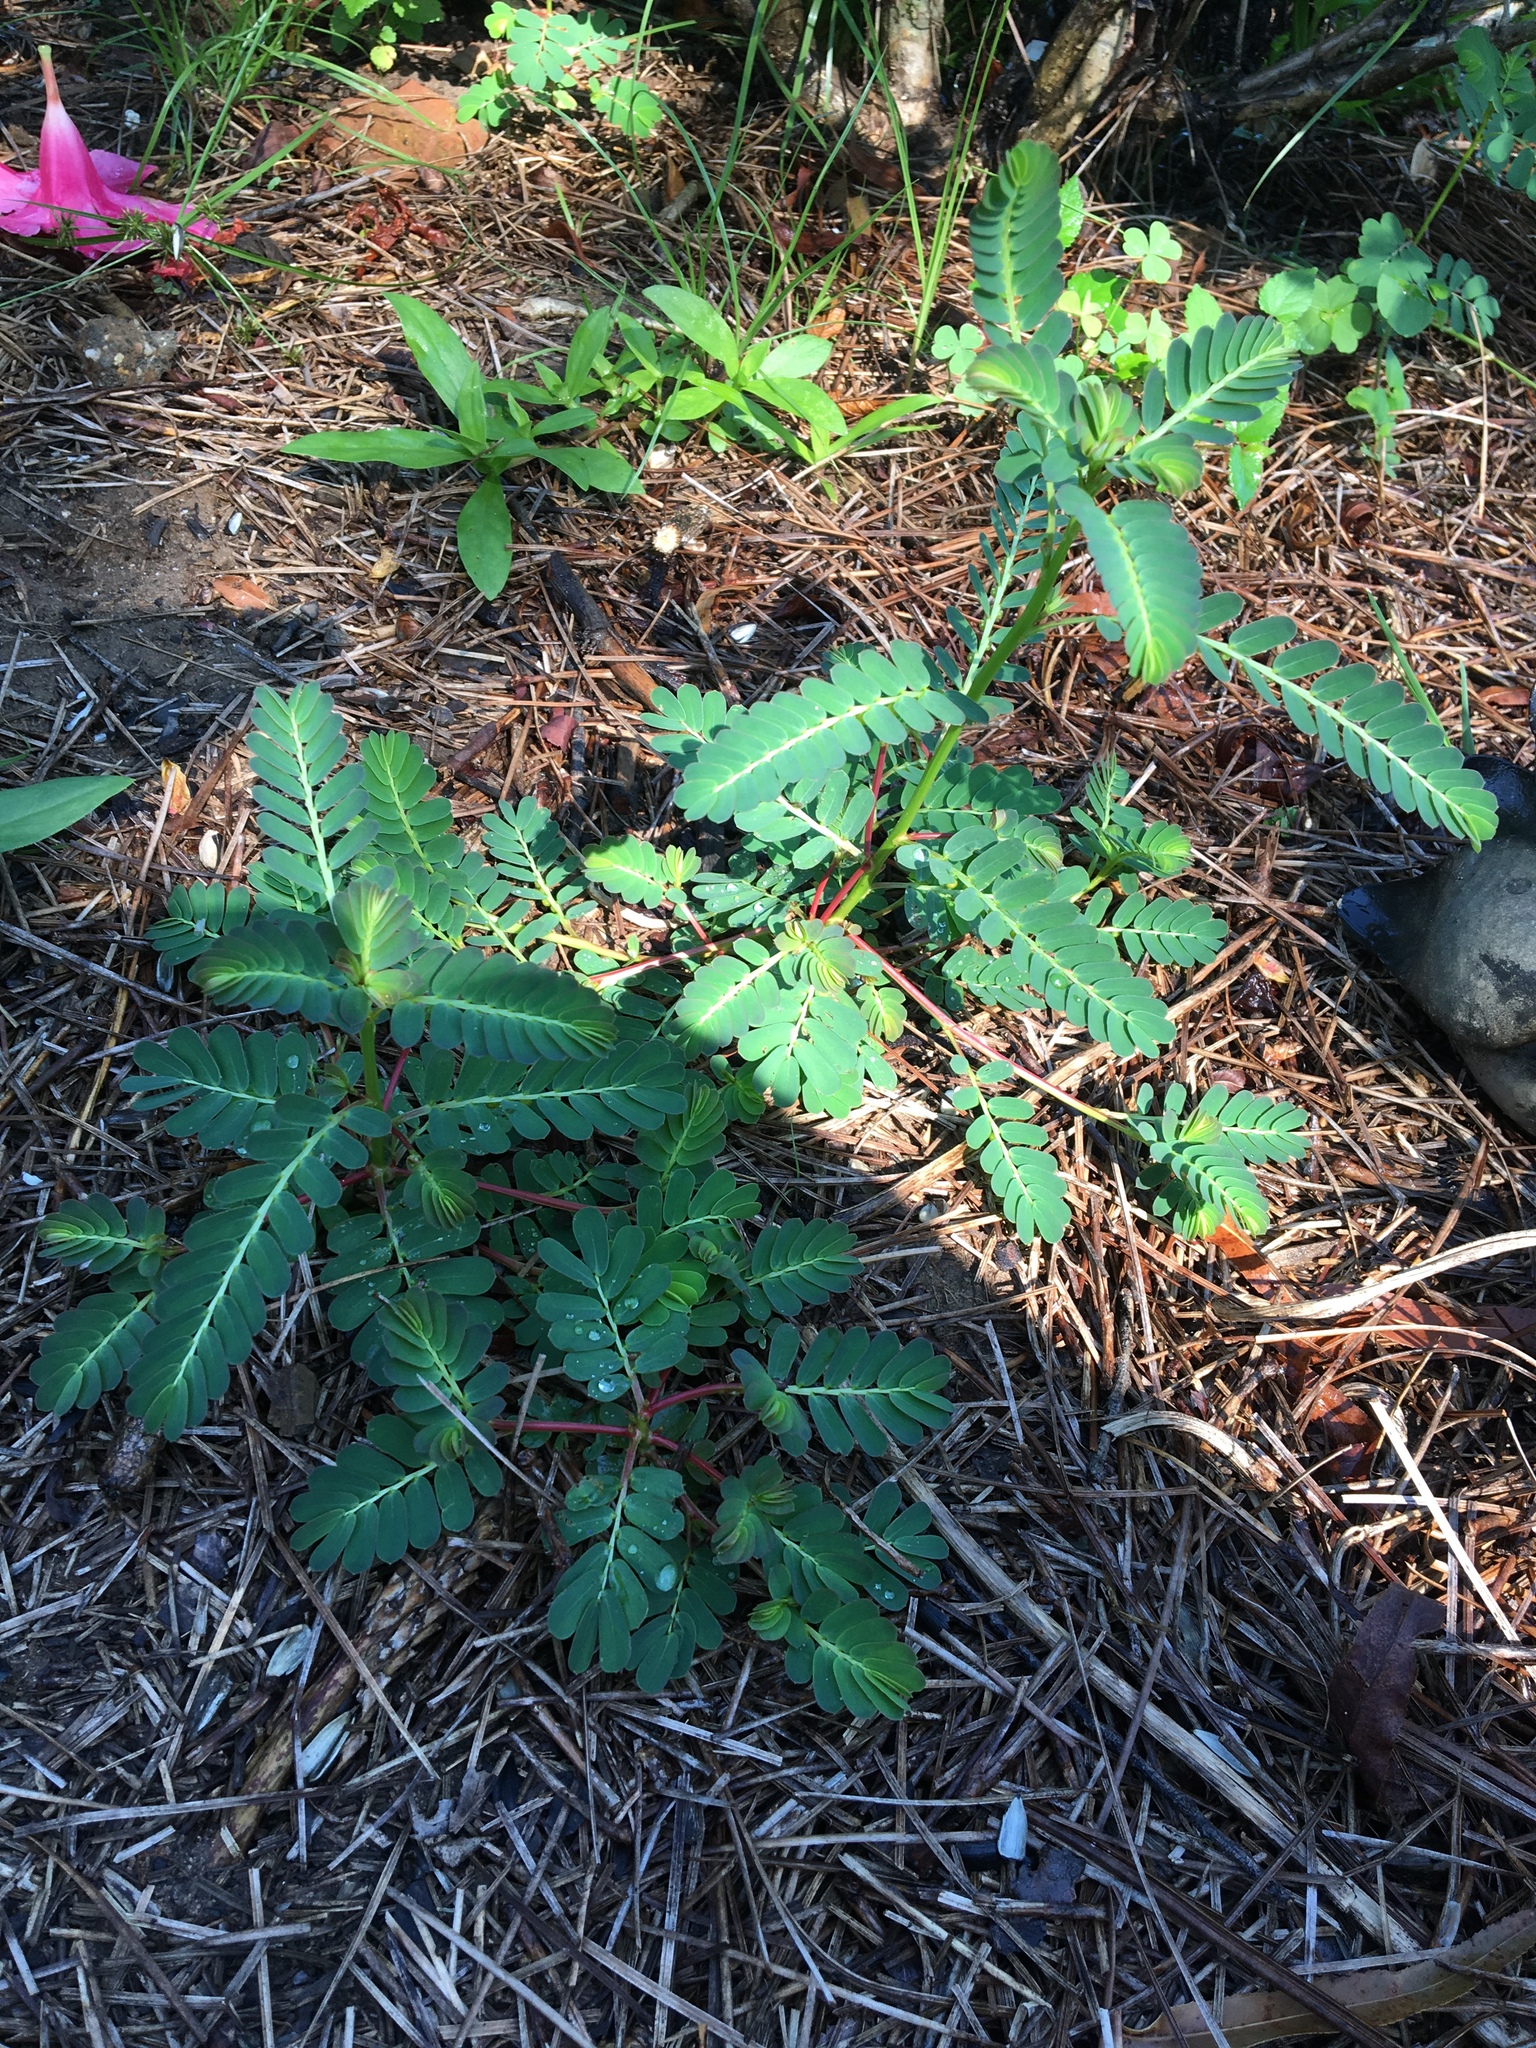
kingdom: Plantae
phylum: Tracheophyta
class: Magnoliopsida
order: Malpighiales
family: Phyllanthaceae
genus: Phyllanthus
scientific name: Phyllanthus urinaria
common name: Chamber bitter
